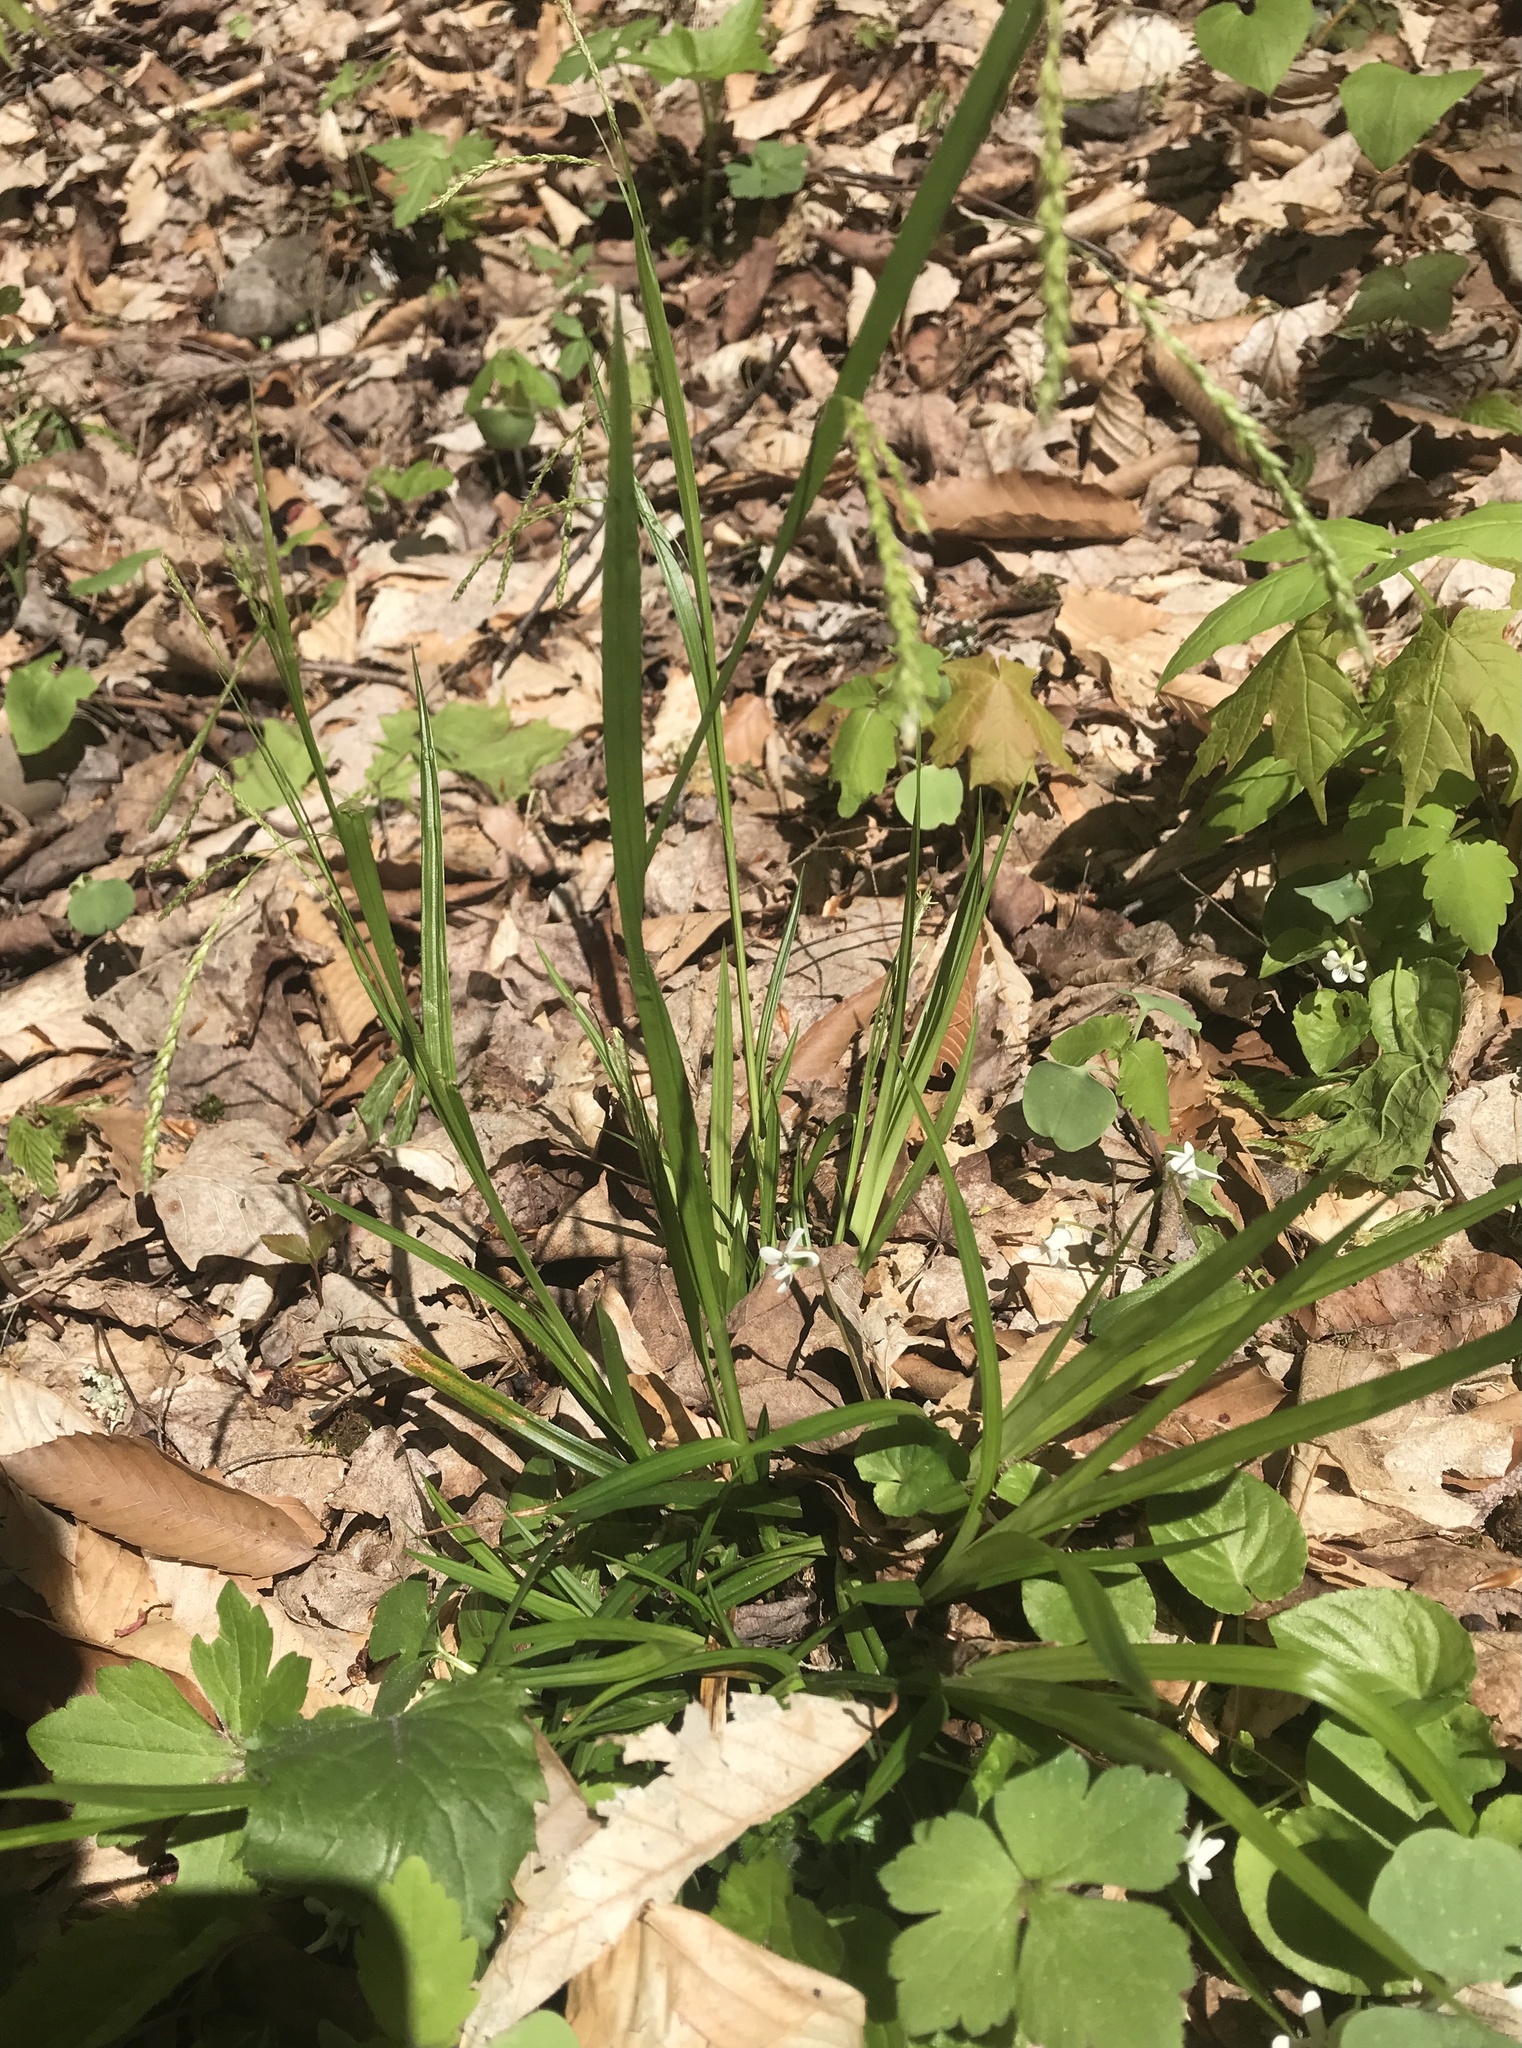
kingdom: Plantae
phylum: Tracheophyta
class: Liliopsida
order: Poales
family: Cyperaceae
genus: Carex
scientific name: Carex arctata
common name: Black sedge
